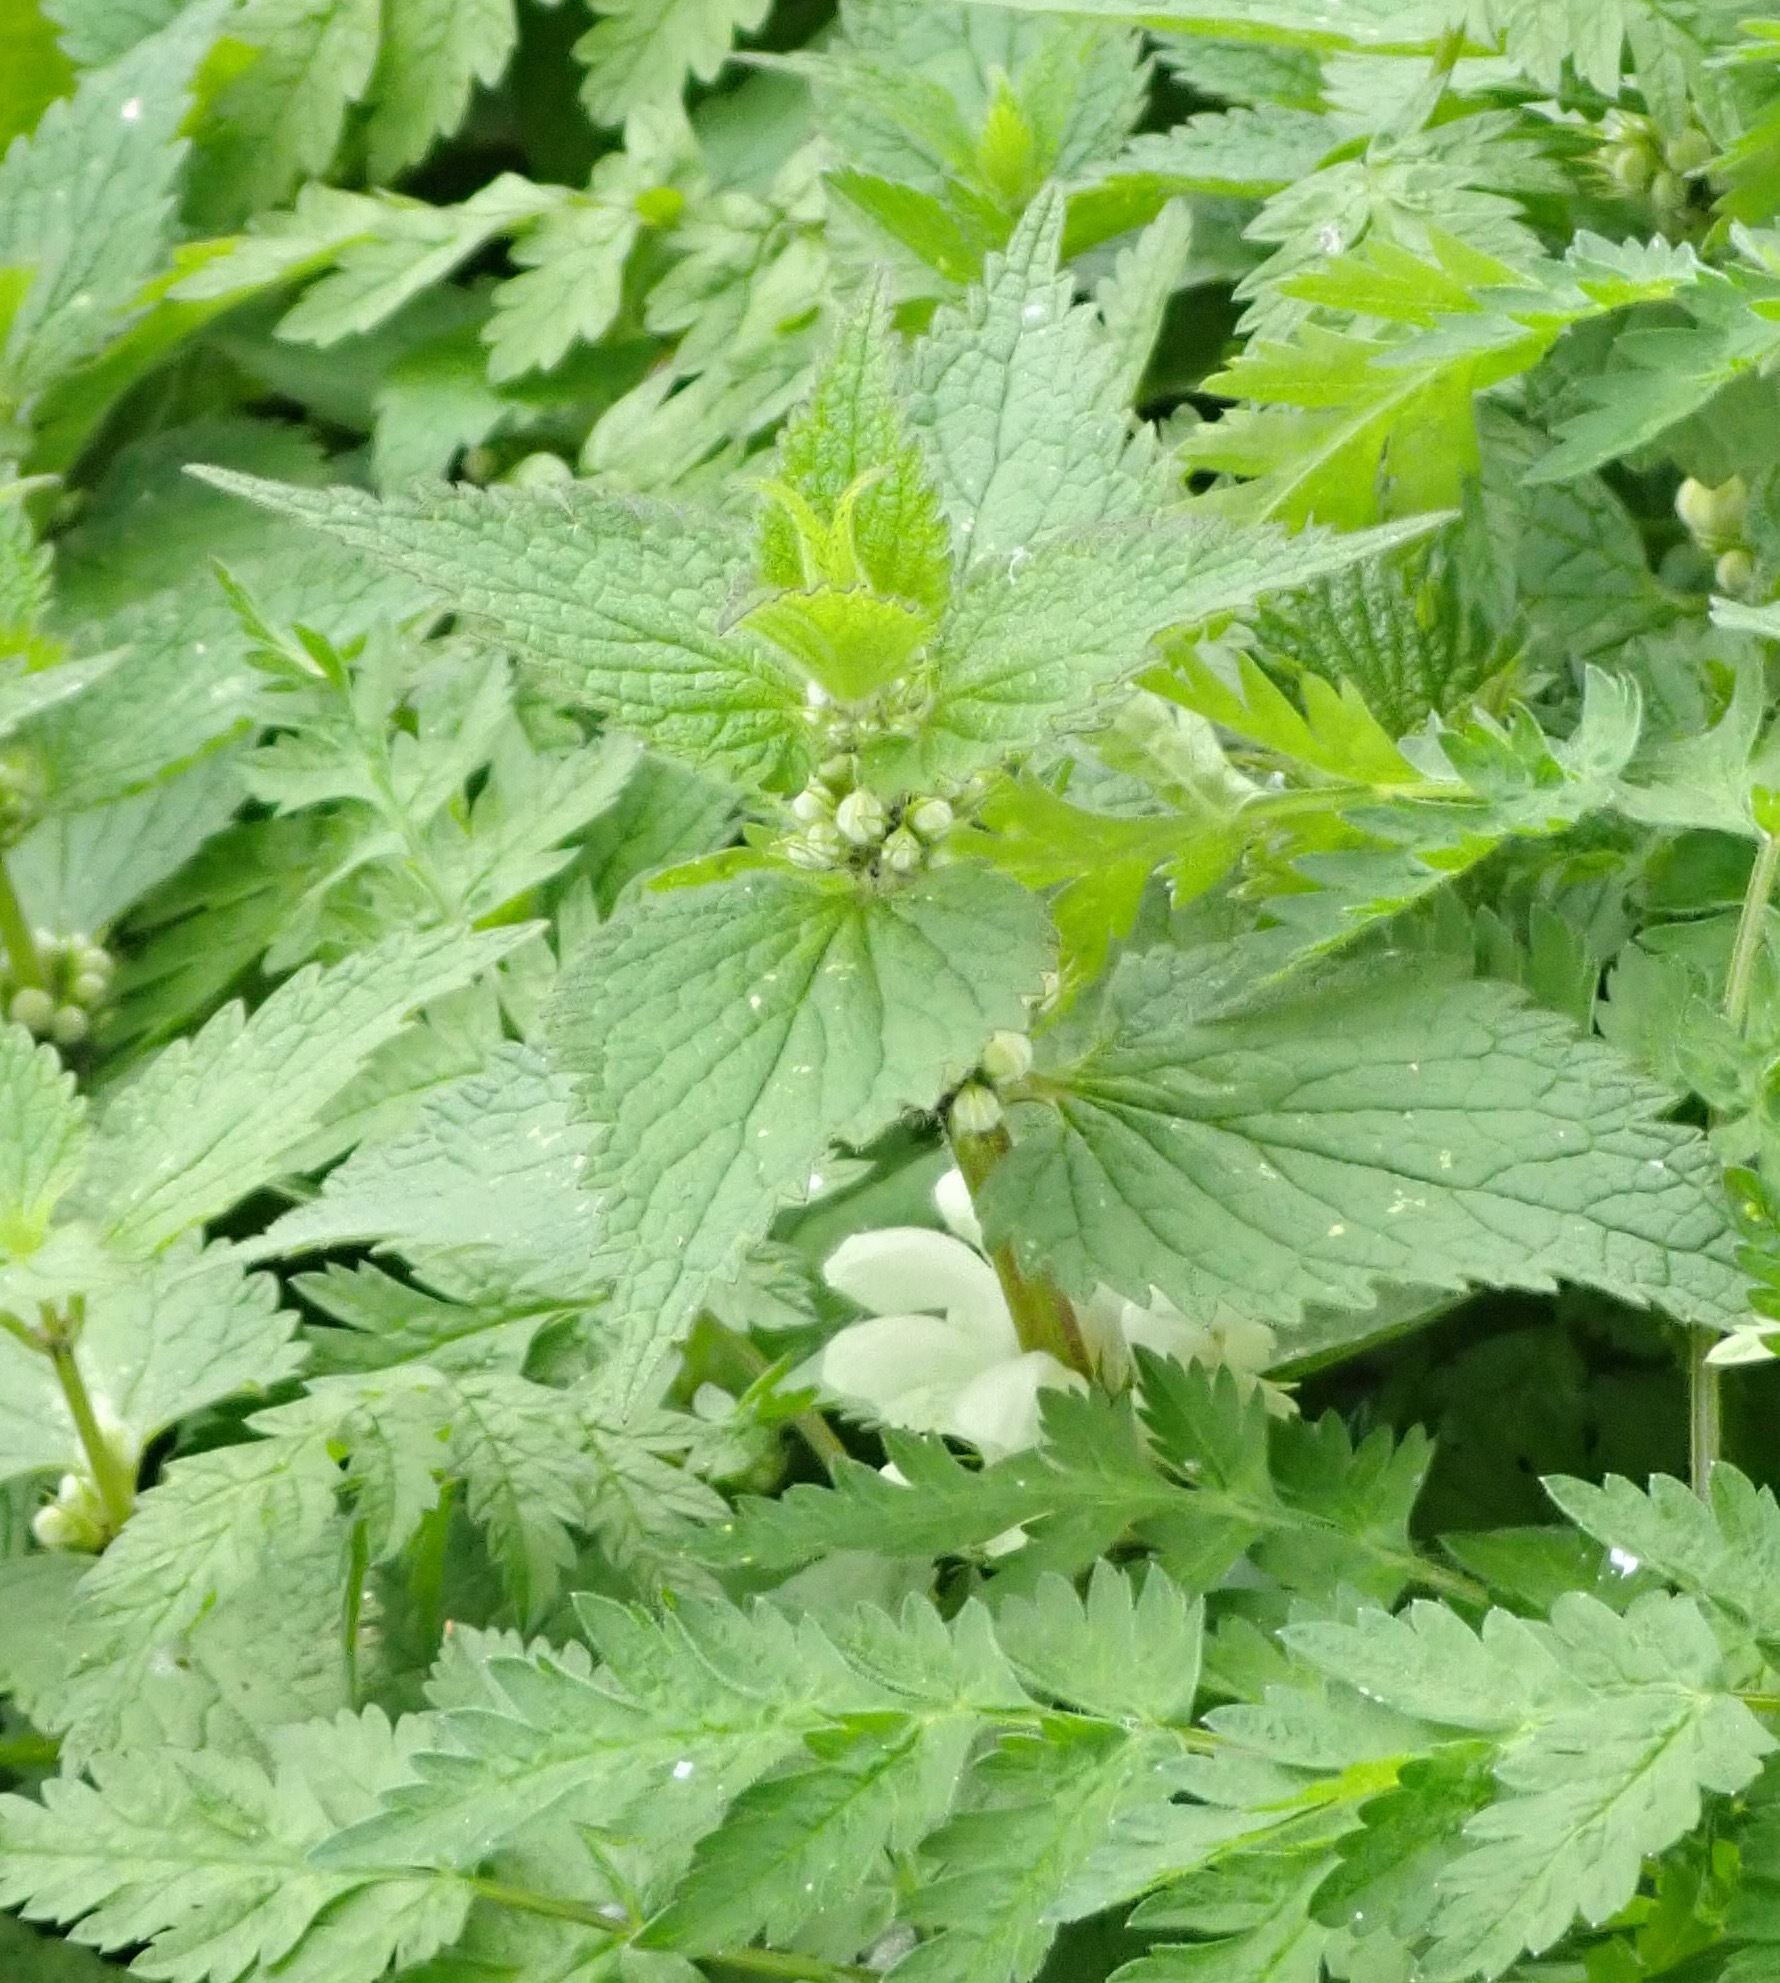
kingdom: Plantae
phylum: Tracheophyta
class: Magnoliopsida
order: Lamiales
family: Lamiaceae
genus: Lamium
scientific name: Lamium album
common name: White dead-nettle
